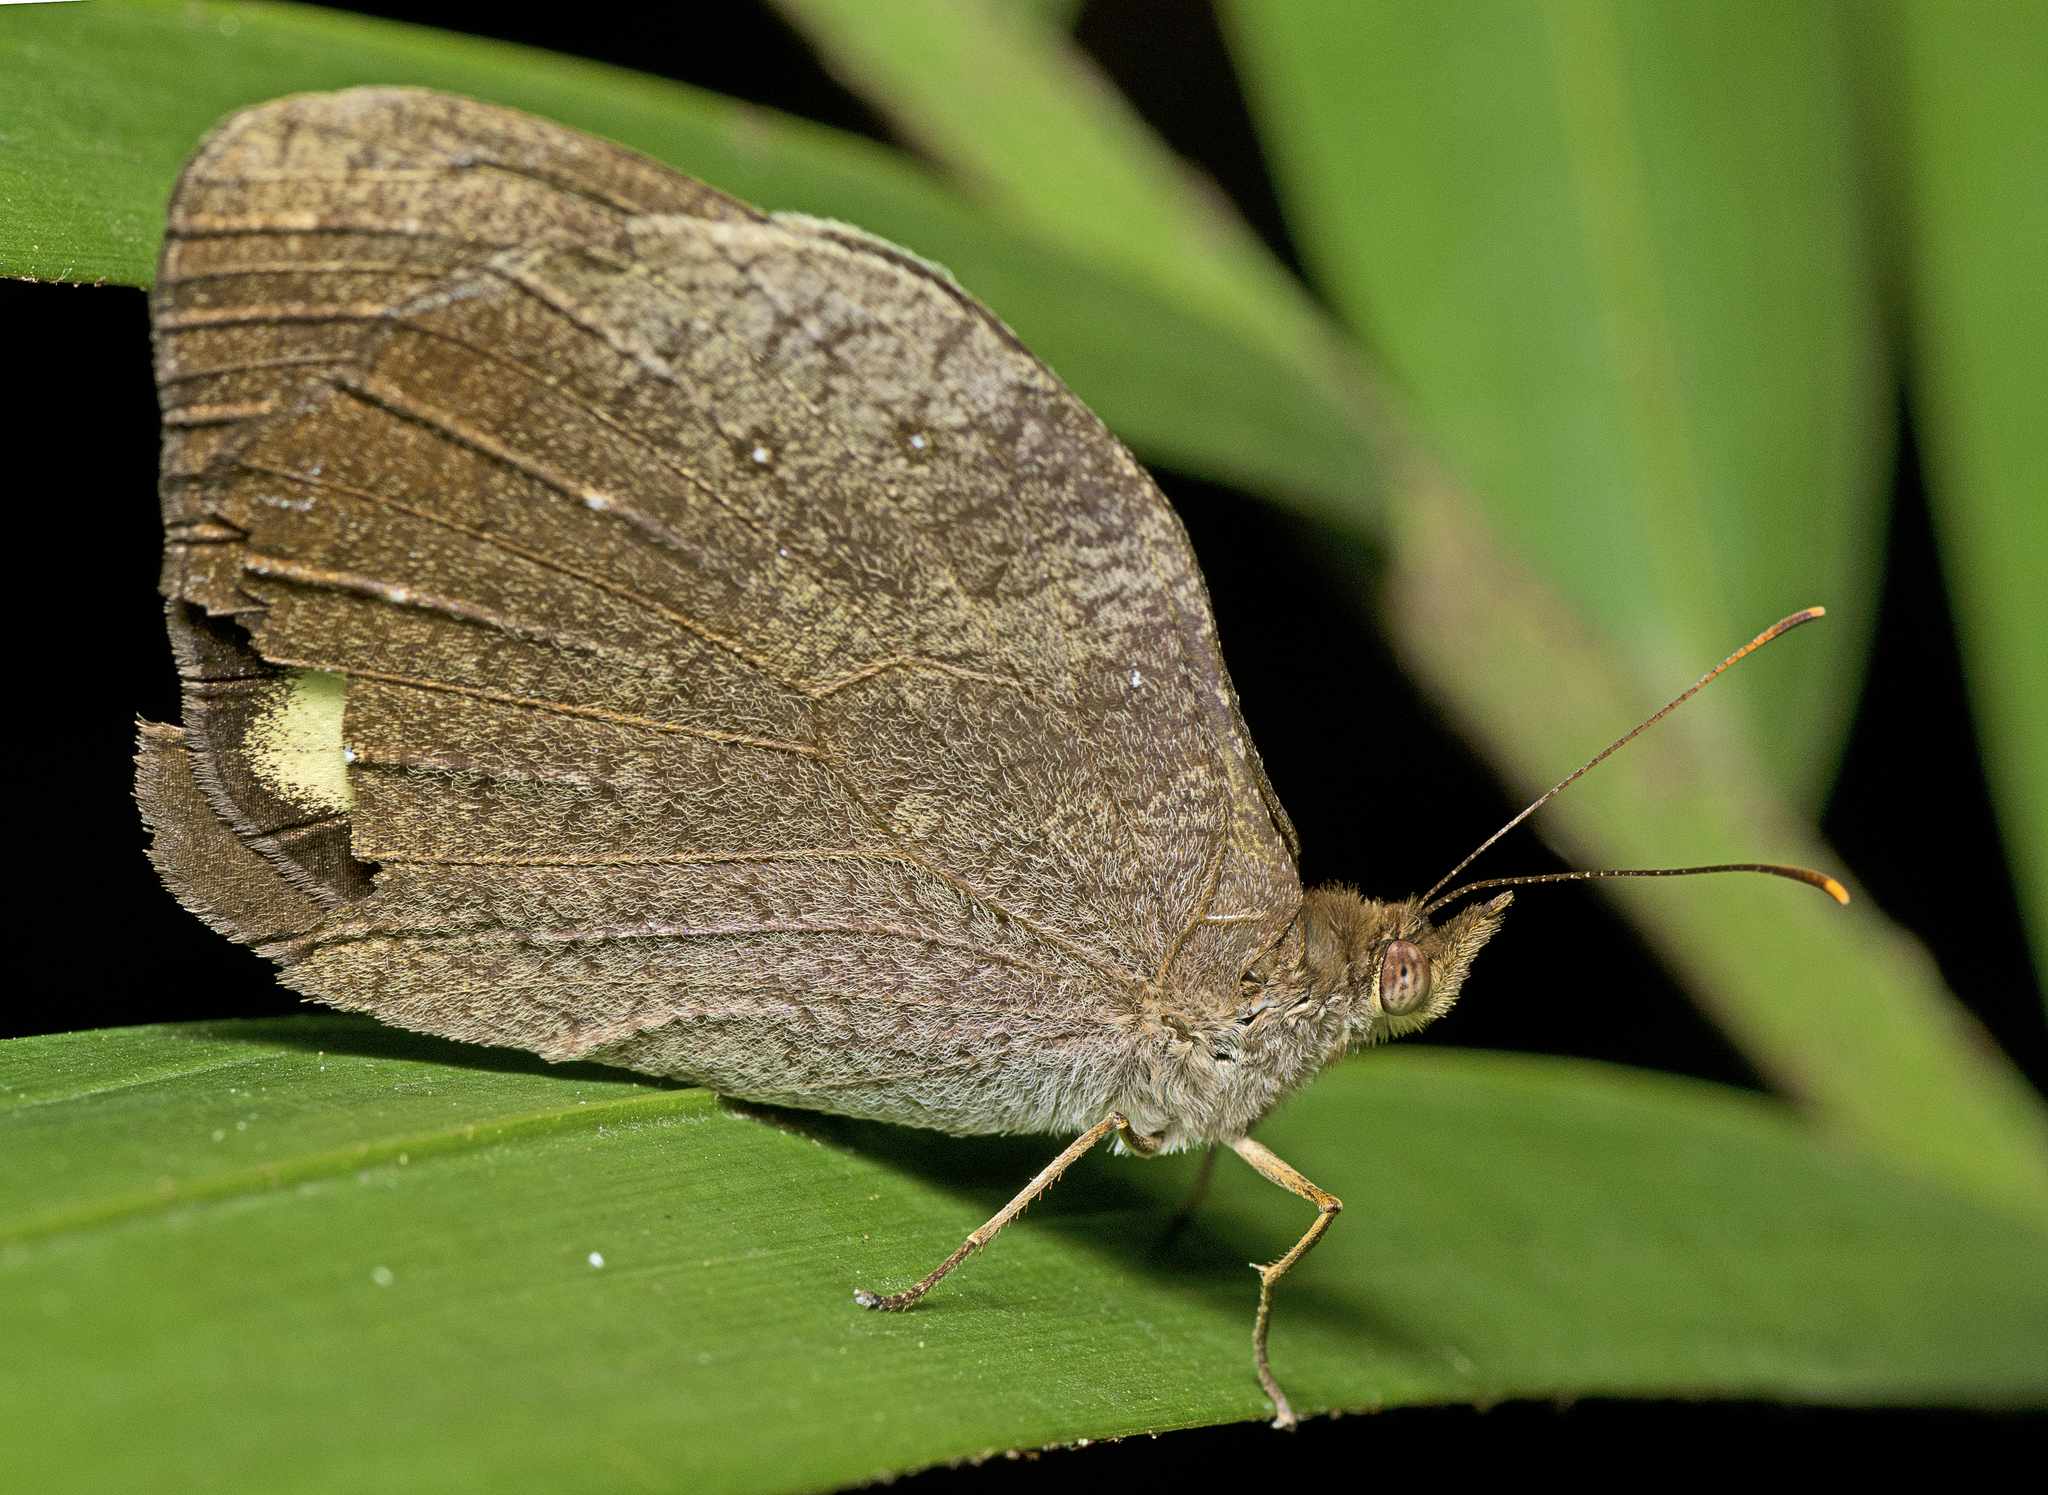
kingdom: Animalia
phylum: Arthropoda
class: Insecta
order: Lepidoptera
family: Nymphalidae
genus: Heteronympha
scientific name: Heteronympha mirifica
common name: Wonder brown
